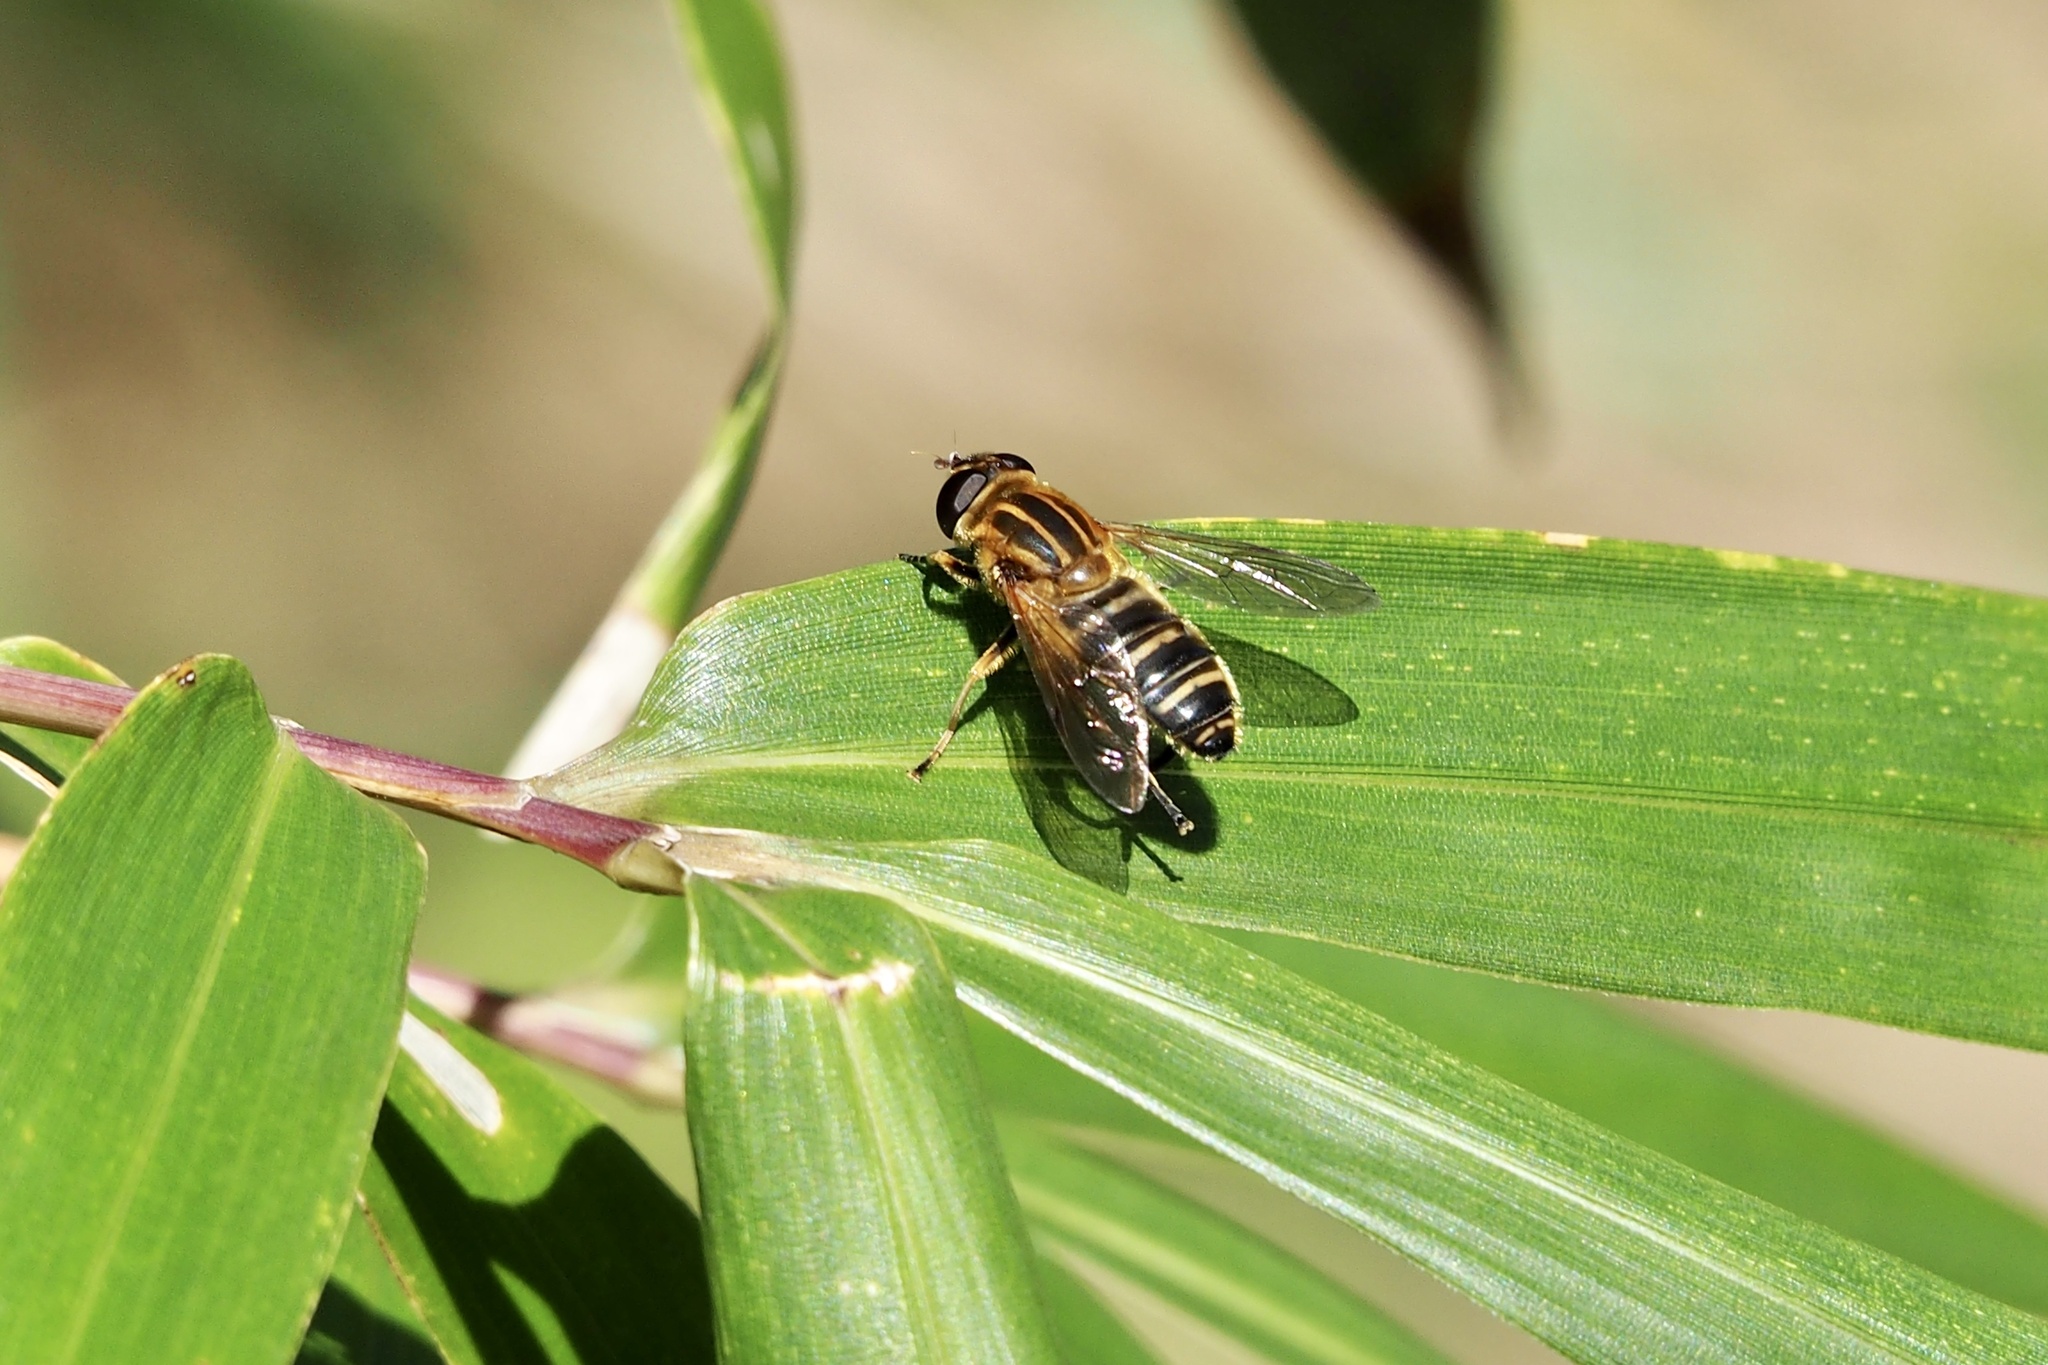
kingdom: Animalia
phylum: Arthropoda
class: Insecta
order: Diptera
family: Syrphidae
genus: Helophilus
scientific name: Helophilus eristaloideus
